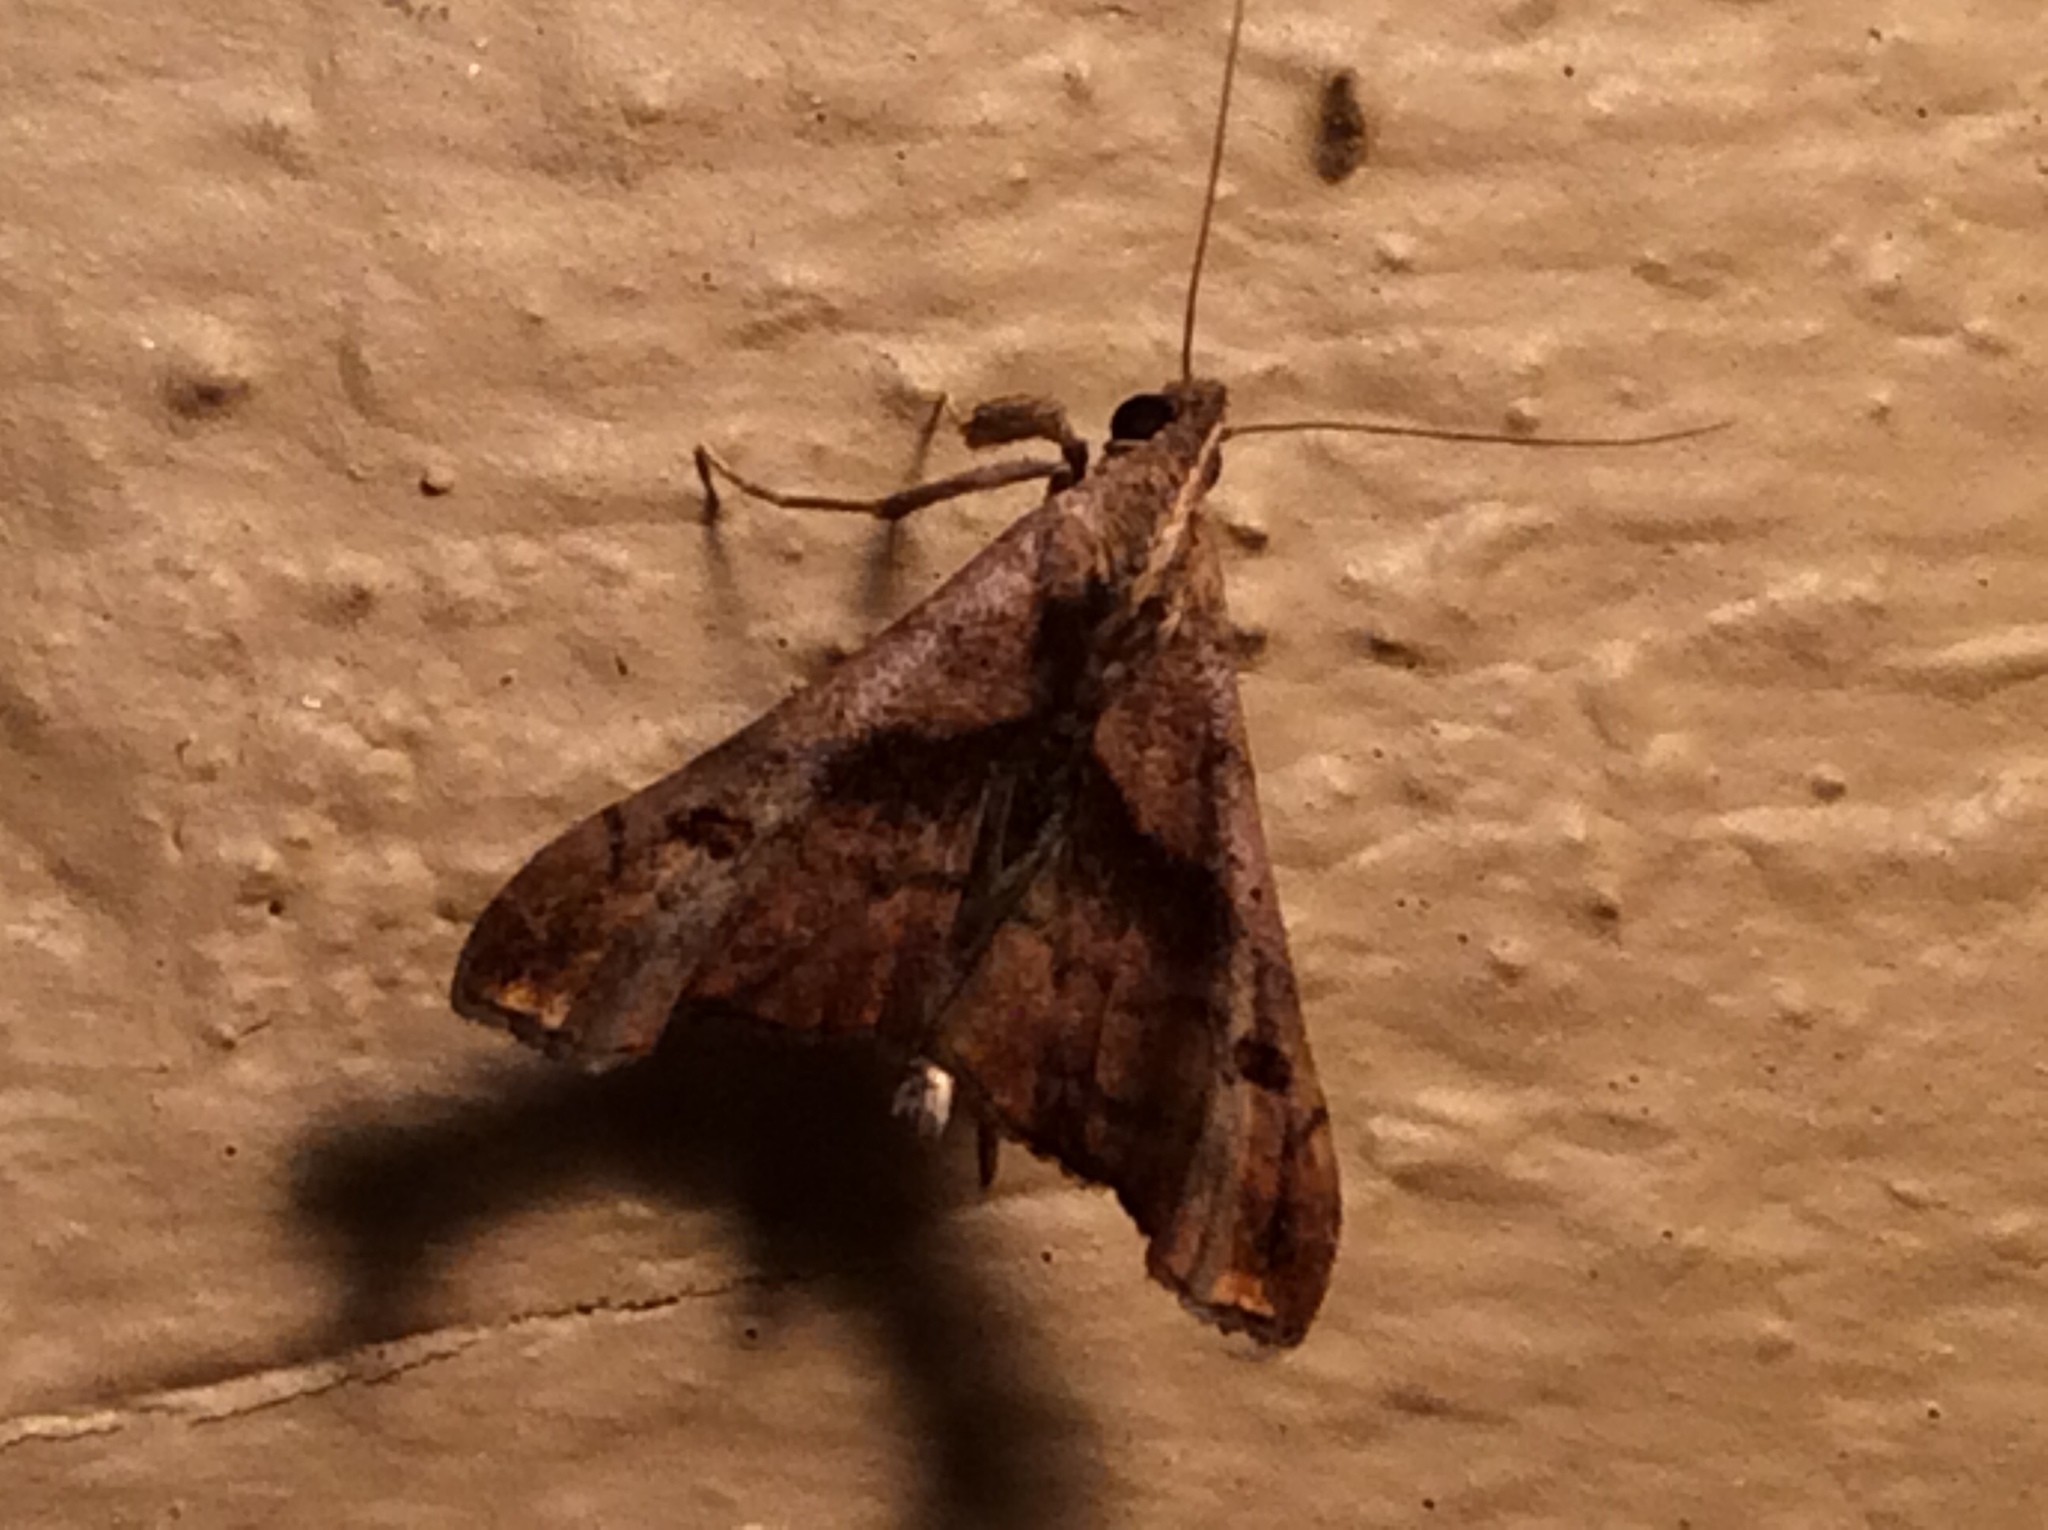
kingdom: Animalia
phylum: Arthropoda
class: Insecta
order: Lepidoptera
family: Erebidae
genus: Palthis
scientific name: Palthis angulalis
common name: Dark-spotted palthis moth
